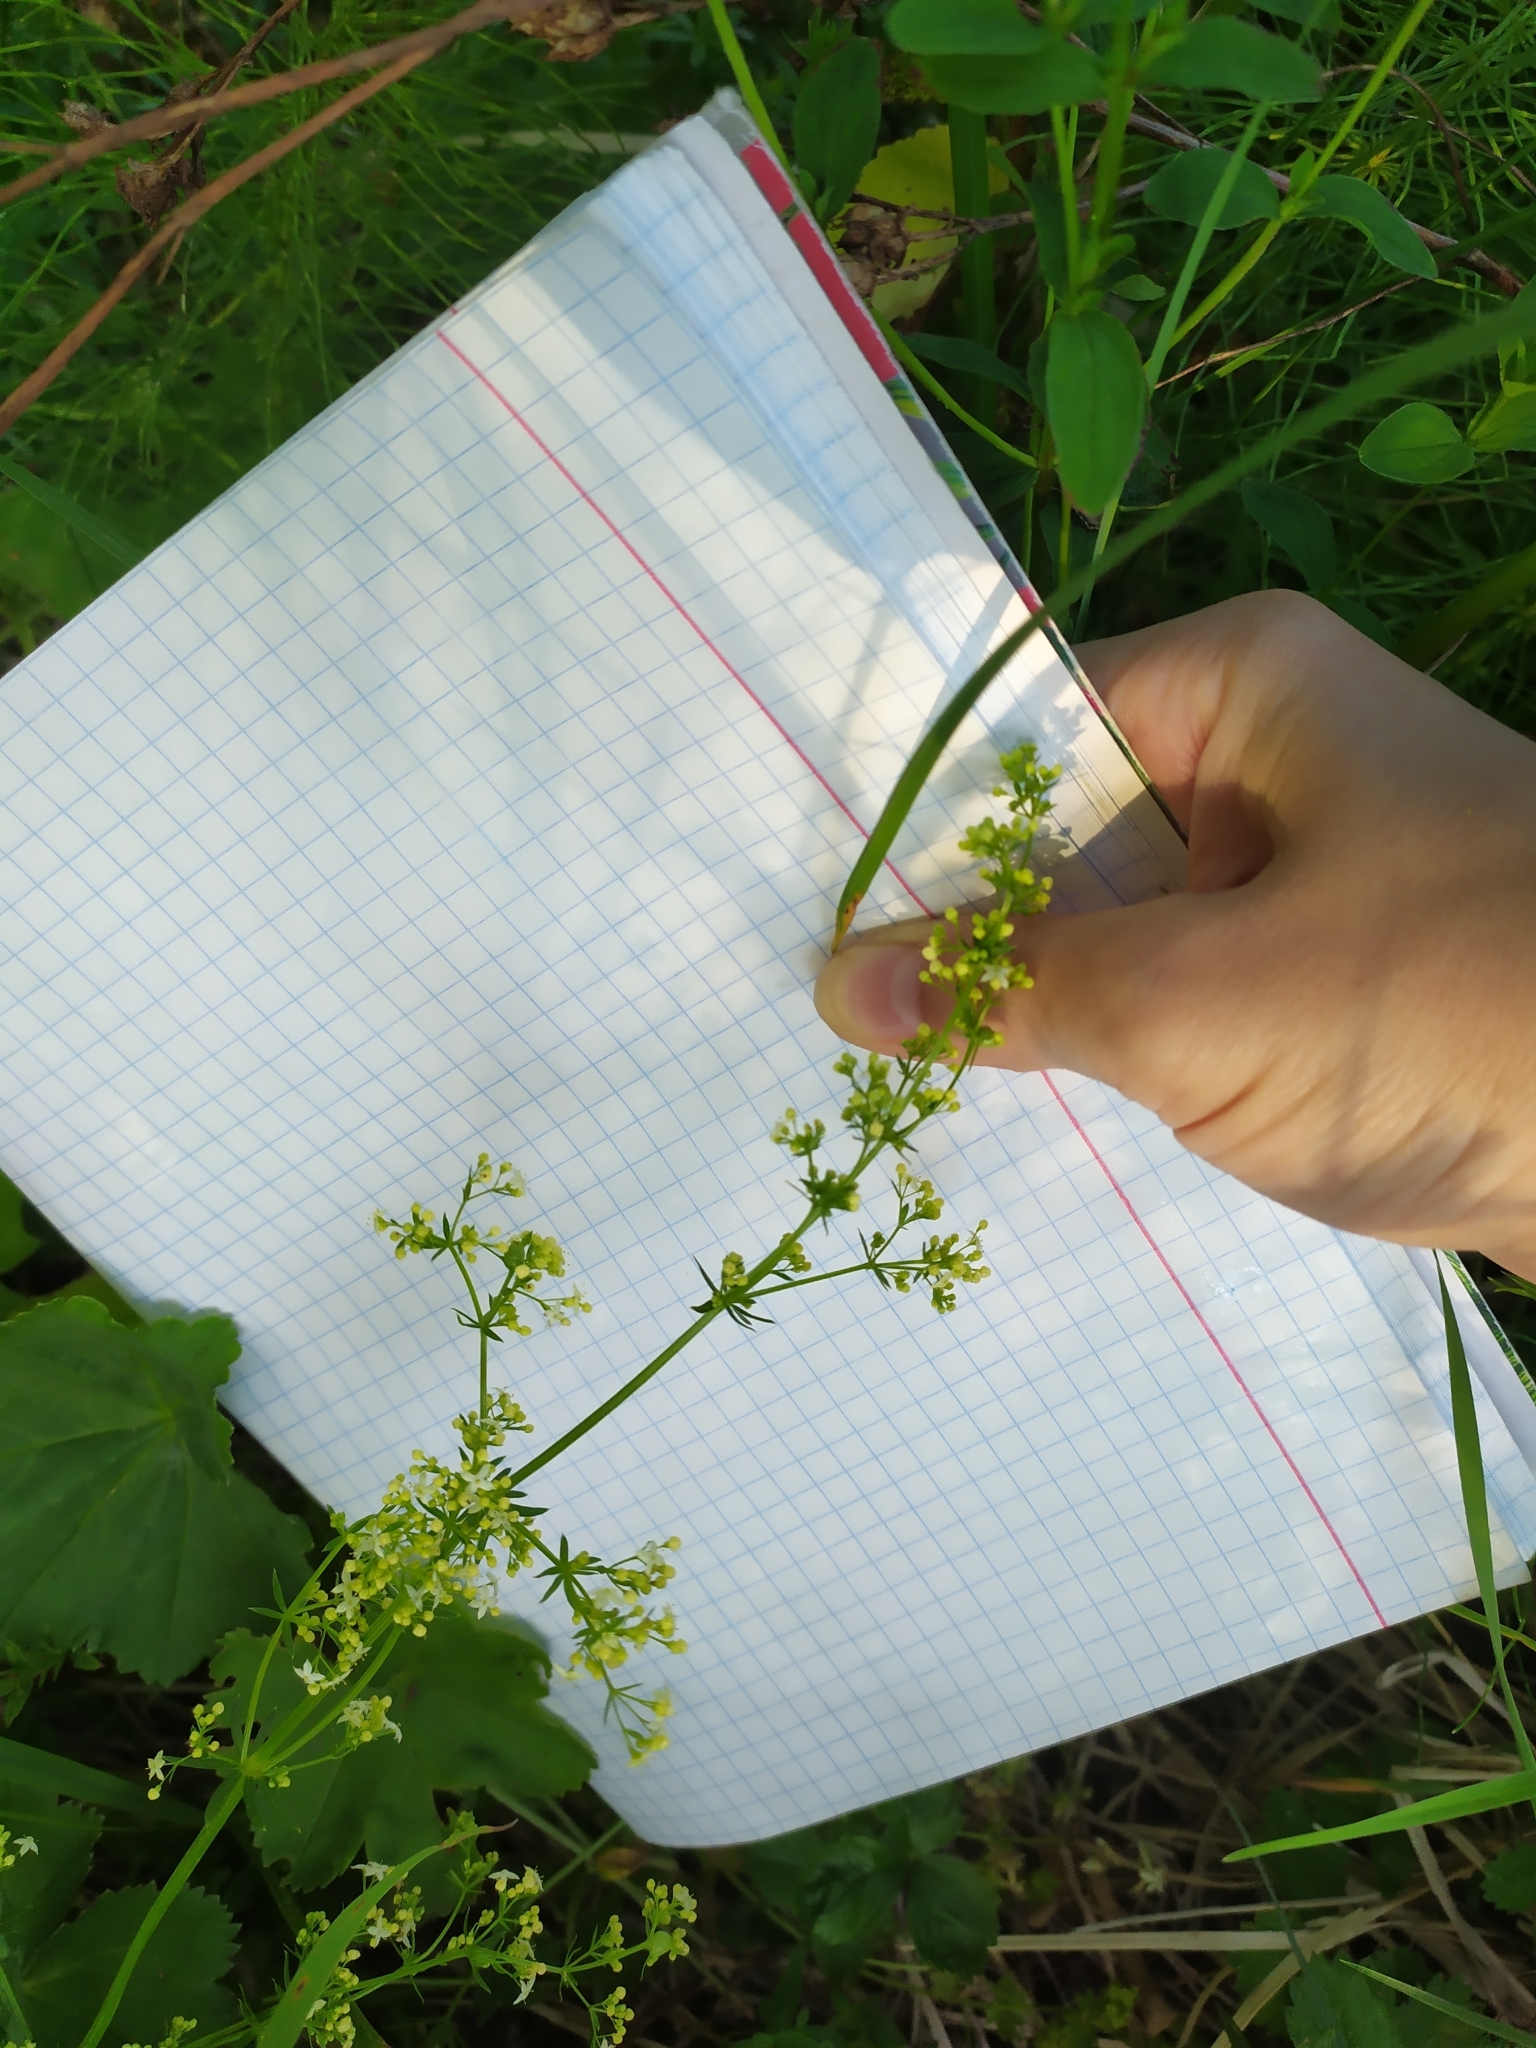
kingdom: Plantae
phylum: Tracheophyta
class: Magnoliopsida
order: Gentianales
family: Rubiaceae
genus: Galium
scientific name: Galium pomeranicum
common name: Bedstraw
